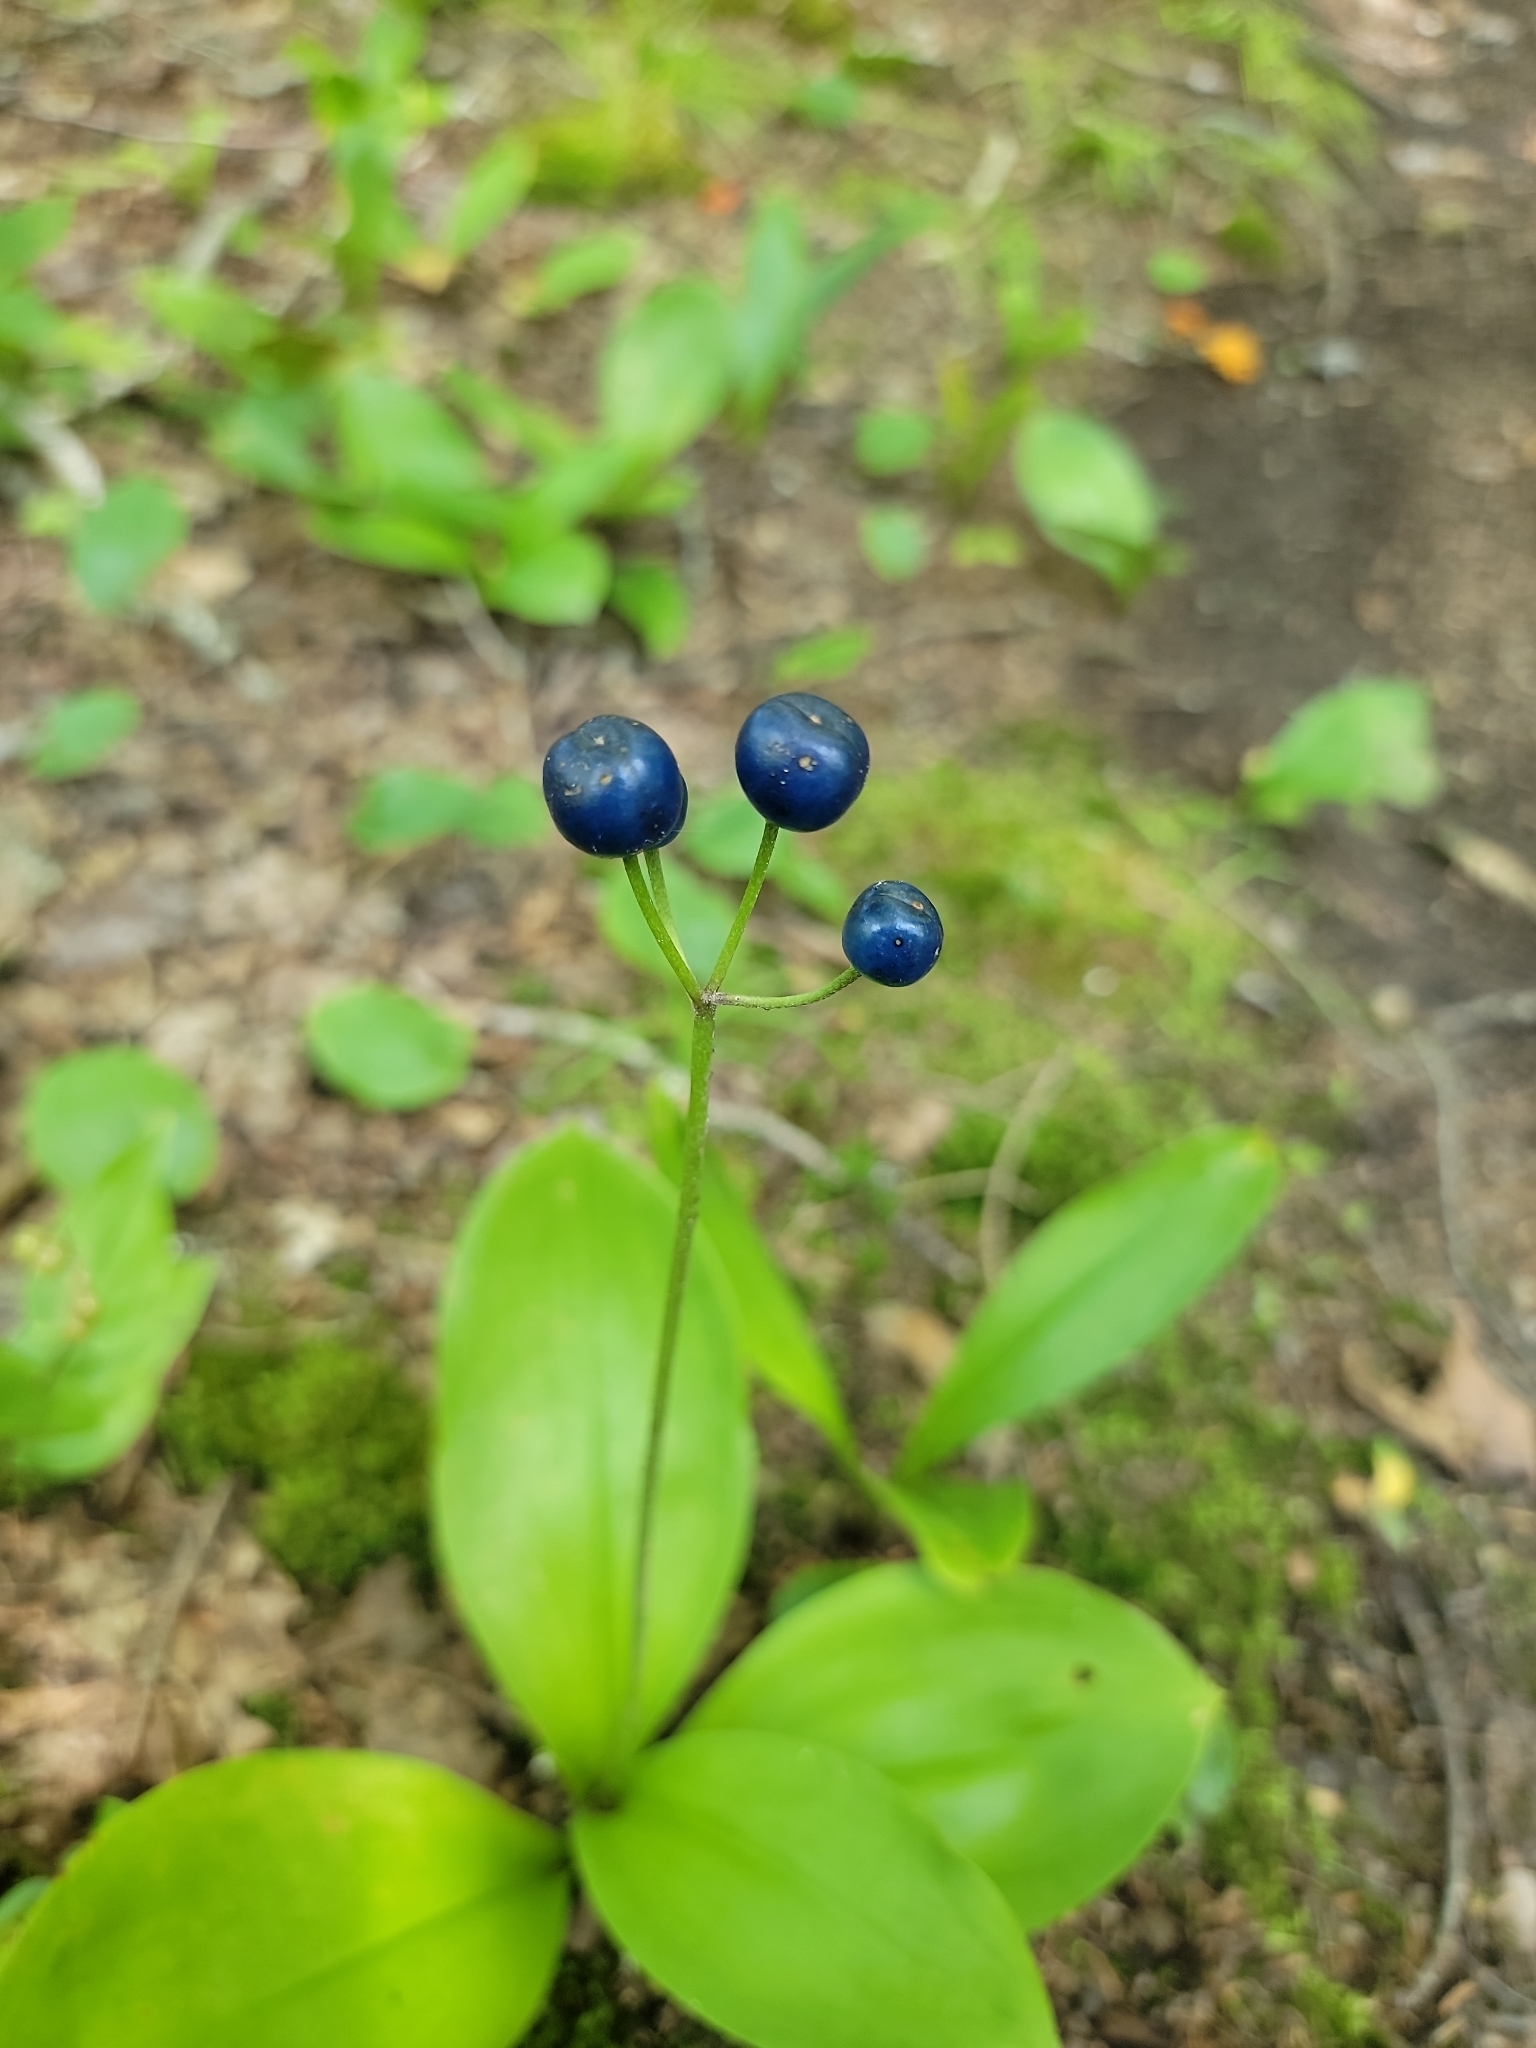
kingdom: Plantae
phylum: Tracheophyta
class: Liliopsida
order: Liliales
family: Liliaceae
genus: Clintonia
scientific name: Clintonia borealis
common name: Yellow clintonia
